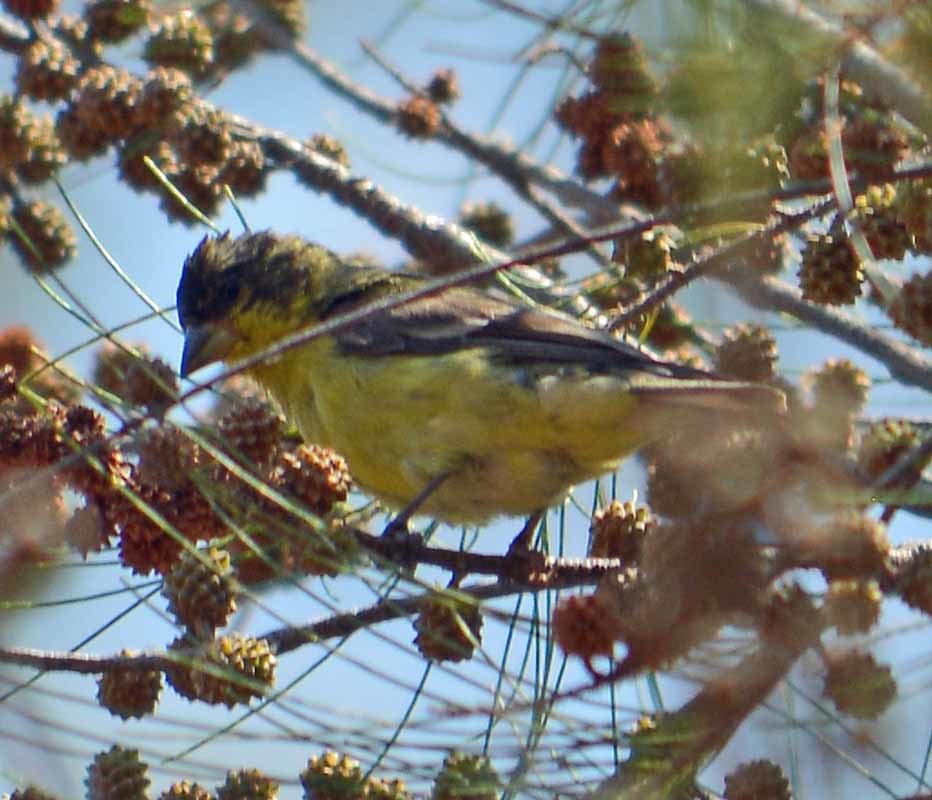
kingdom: Animalia
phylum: Chordata
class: Aves
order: Passeriformes
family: Fringillidae
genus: Spinus
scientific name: Spinus psaltria
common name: Lesser goldfinch
